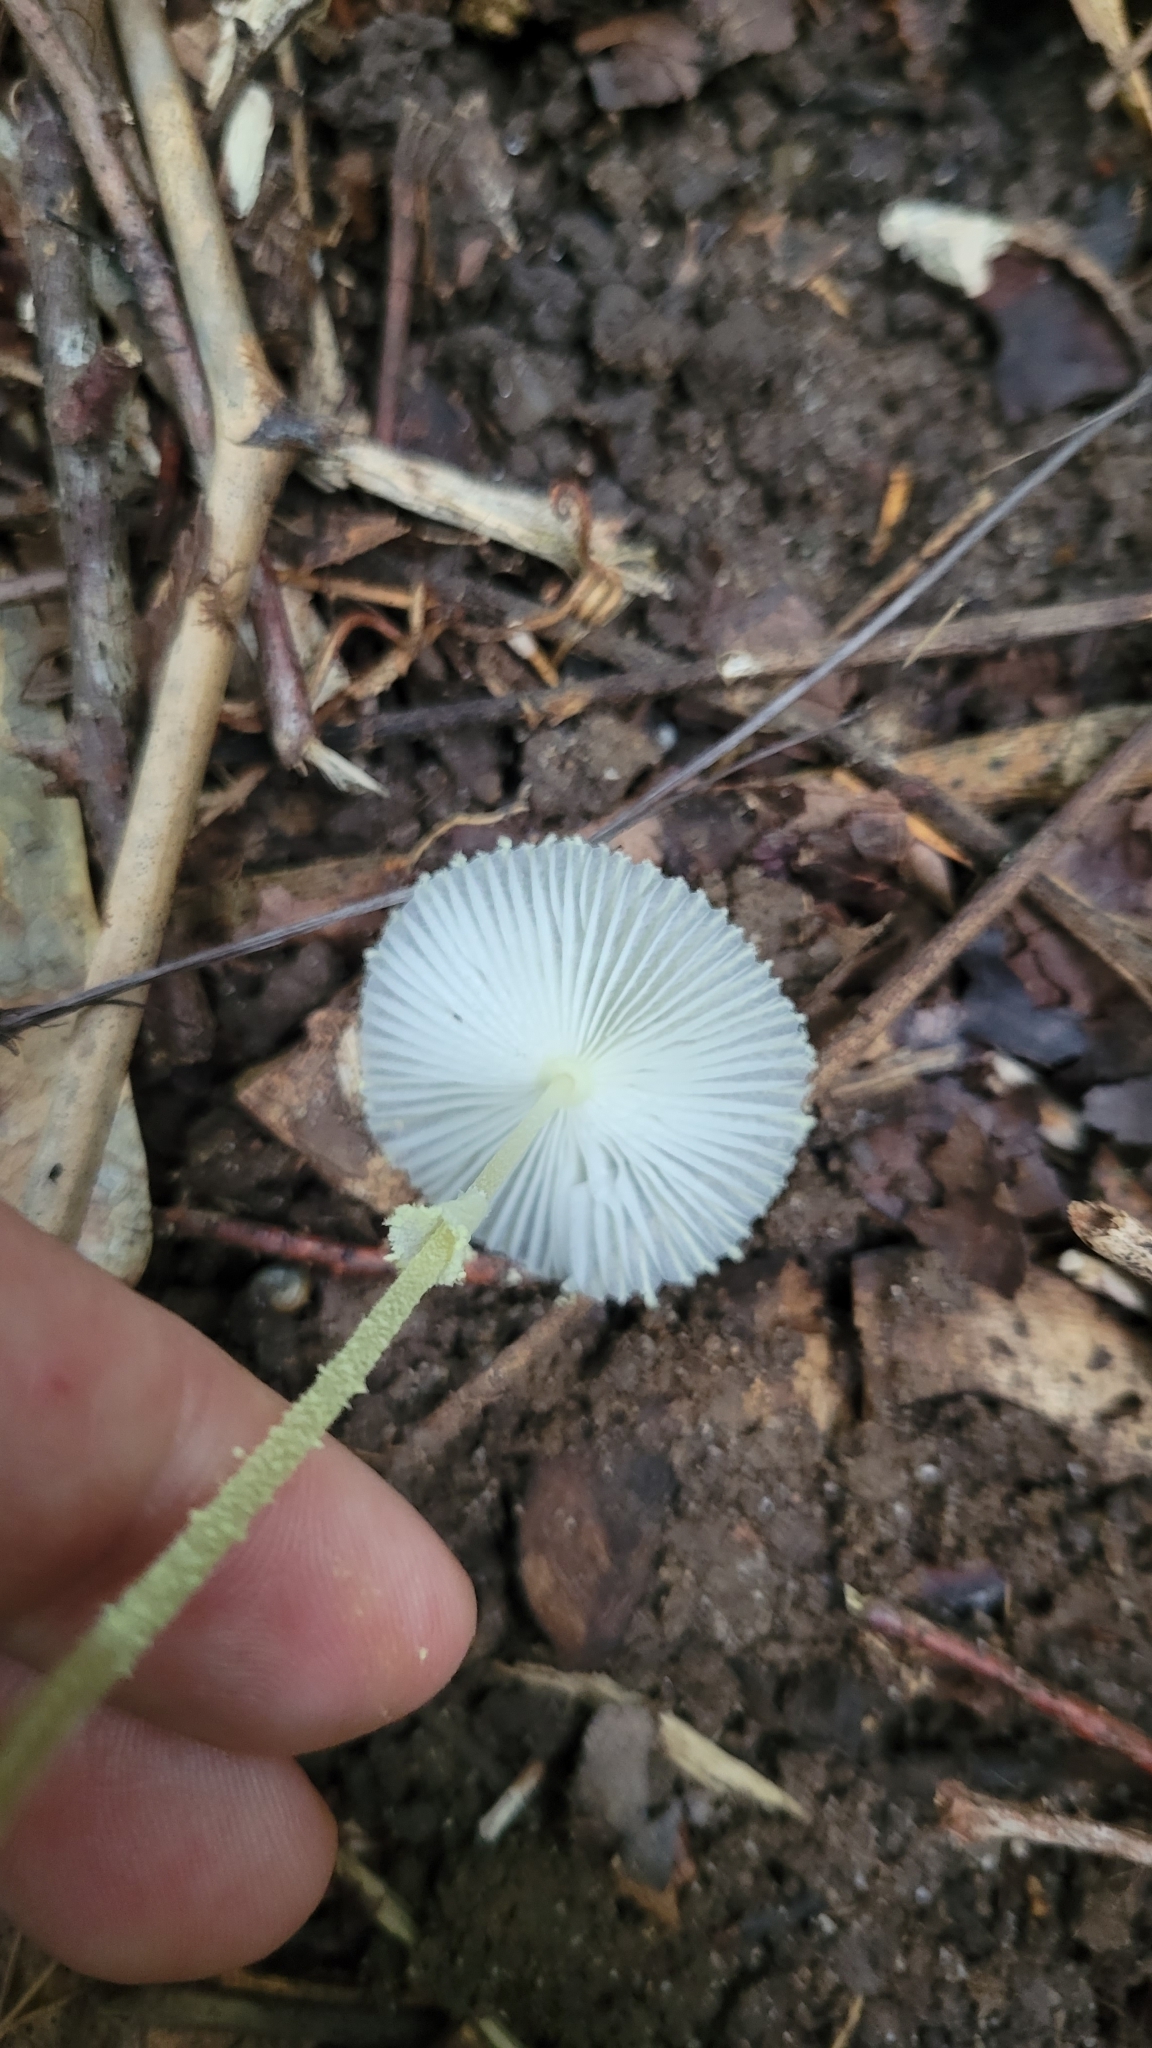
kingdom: Fungi
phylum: Basidiomycota
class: Agaricomycetes
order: Agaricales
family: Agaricaceae
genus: Leucocoprinus
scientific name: Leucocoprinus fragilissimus
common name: Fragile dapperling
